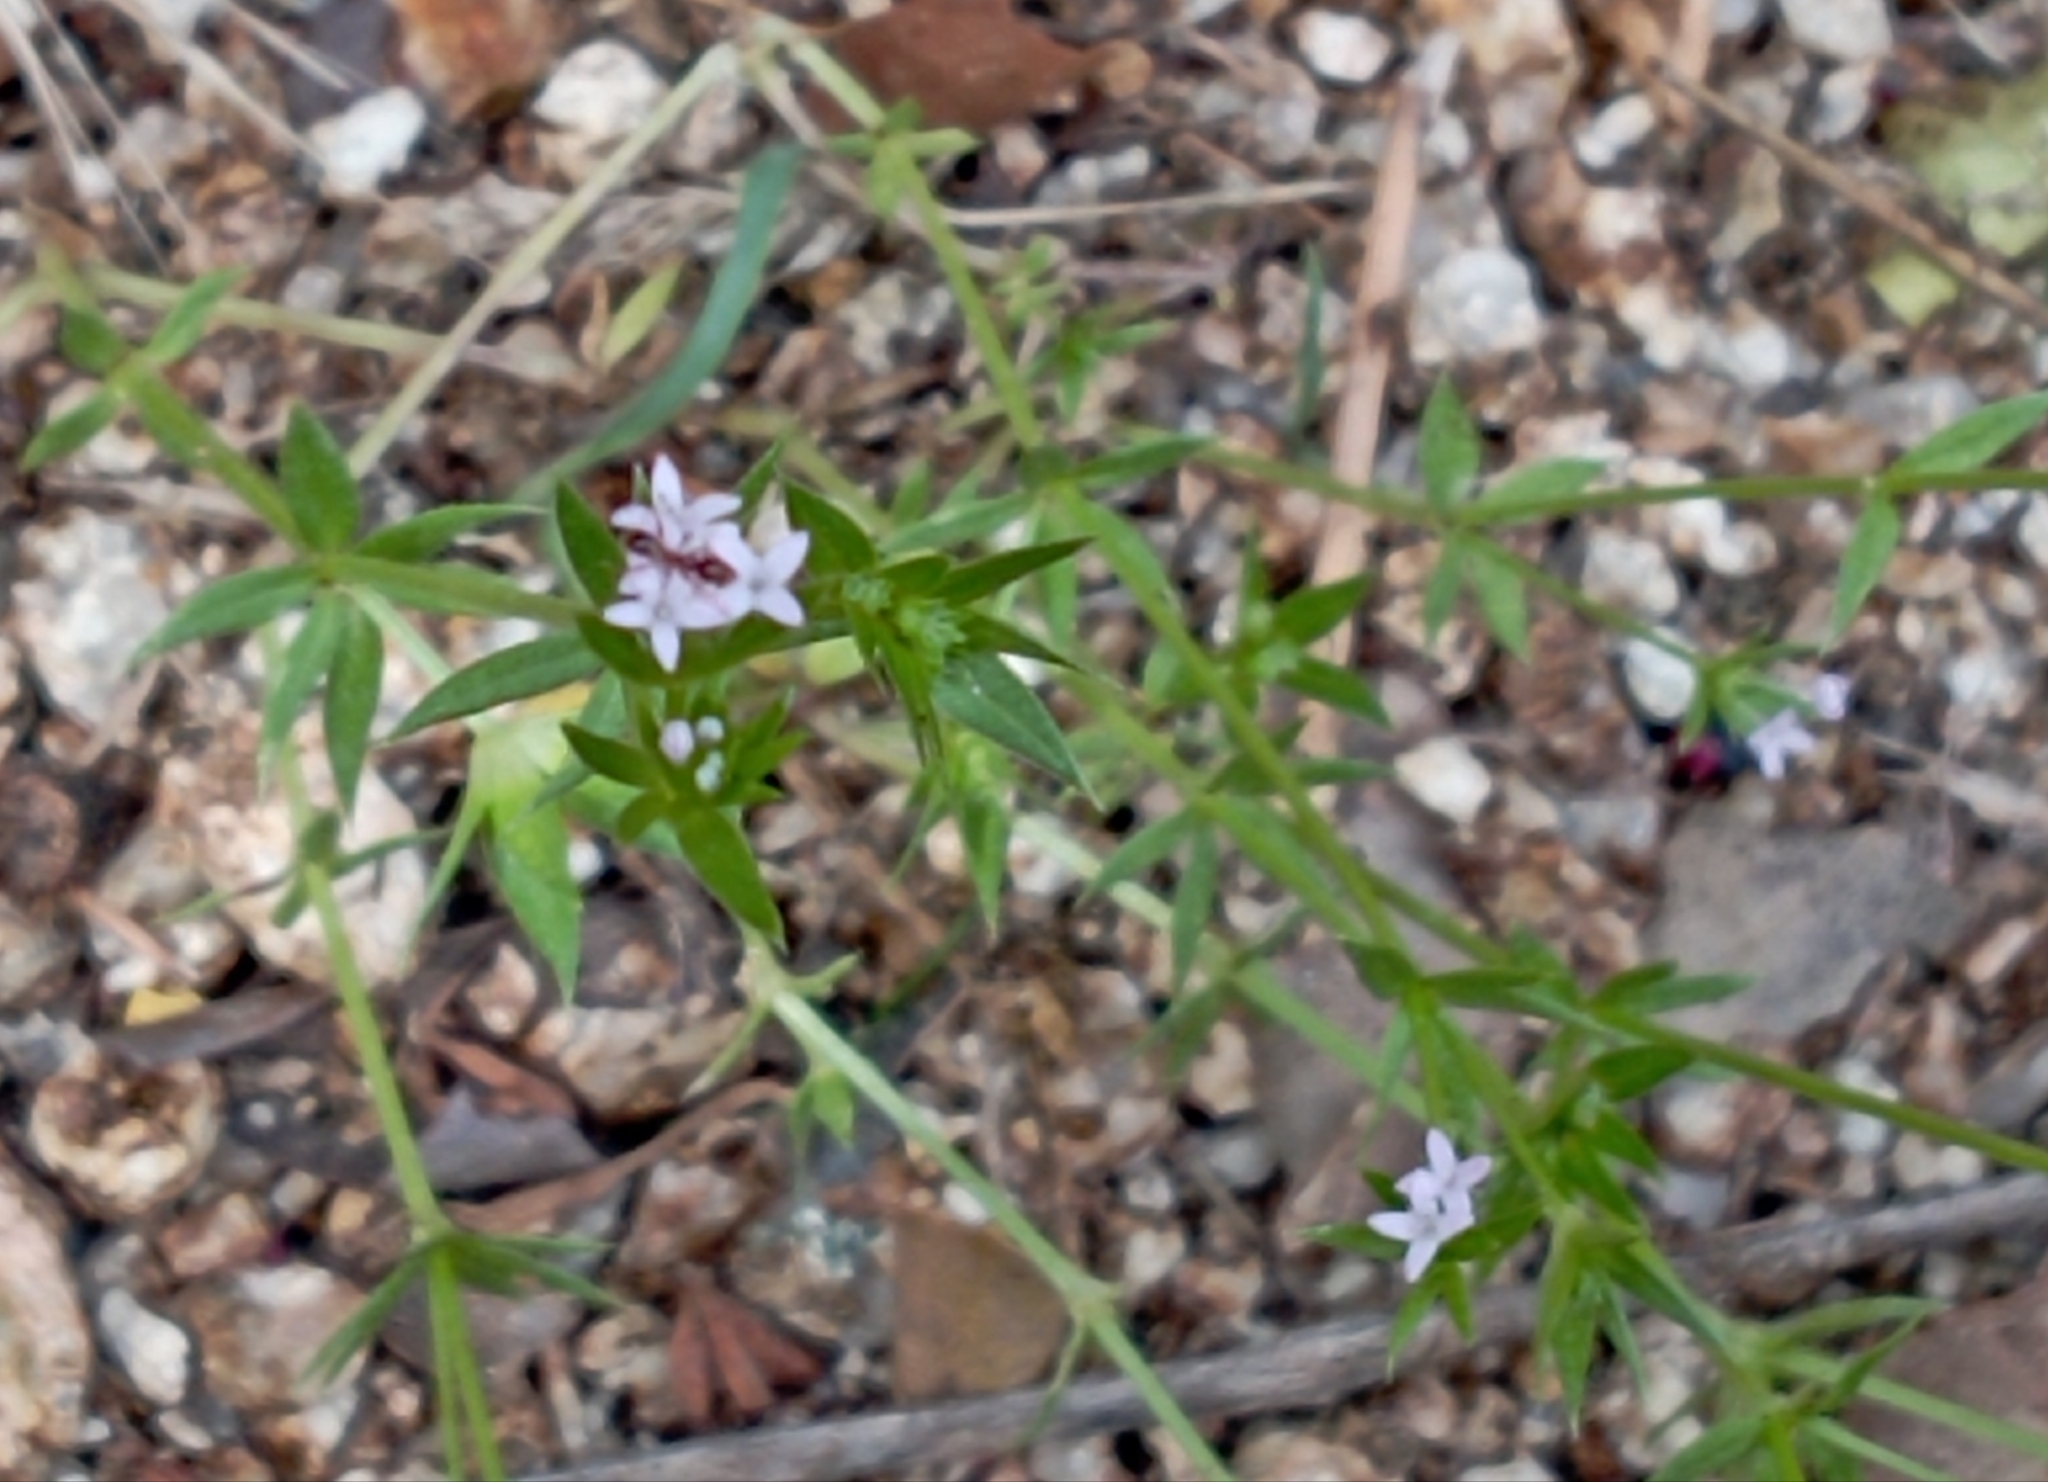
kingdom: Plantae
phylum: Tracheophyta
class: Magnoliopsida
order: Gentianales
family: Rubiaceae
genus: Sherardia
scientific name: Sherardia arvensis
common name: Field madder
